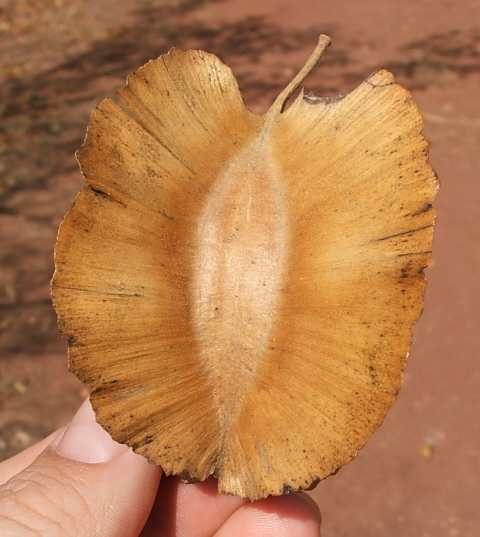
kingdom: Plantae
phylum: Tracheophyta
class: Magnoliopsida
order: Myrtales
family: Combretaceae
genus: Combretum
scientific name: Combretum zeyheri
